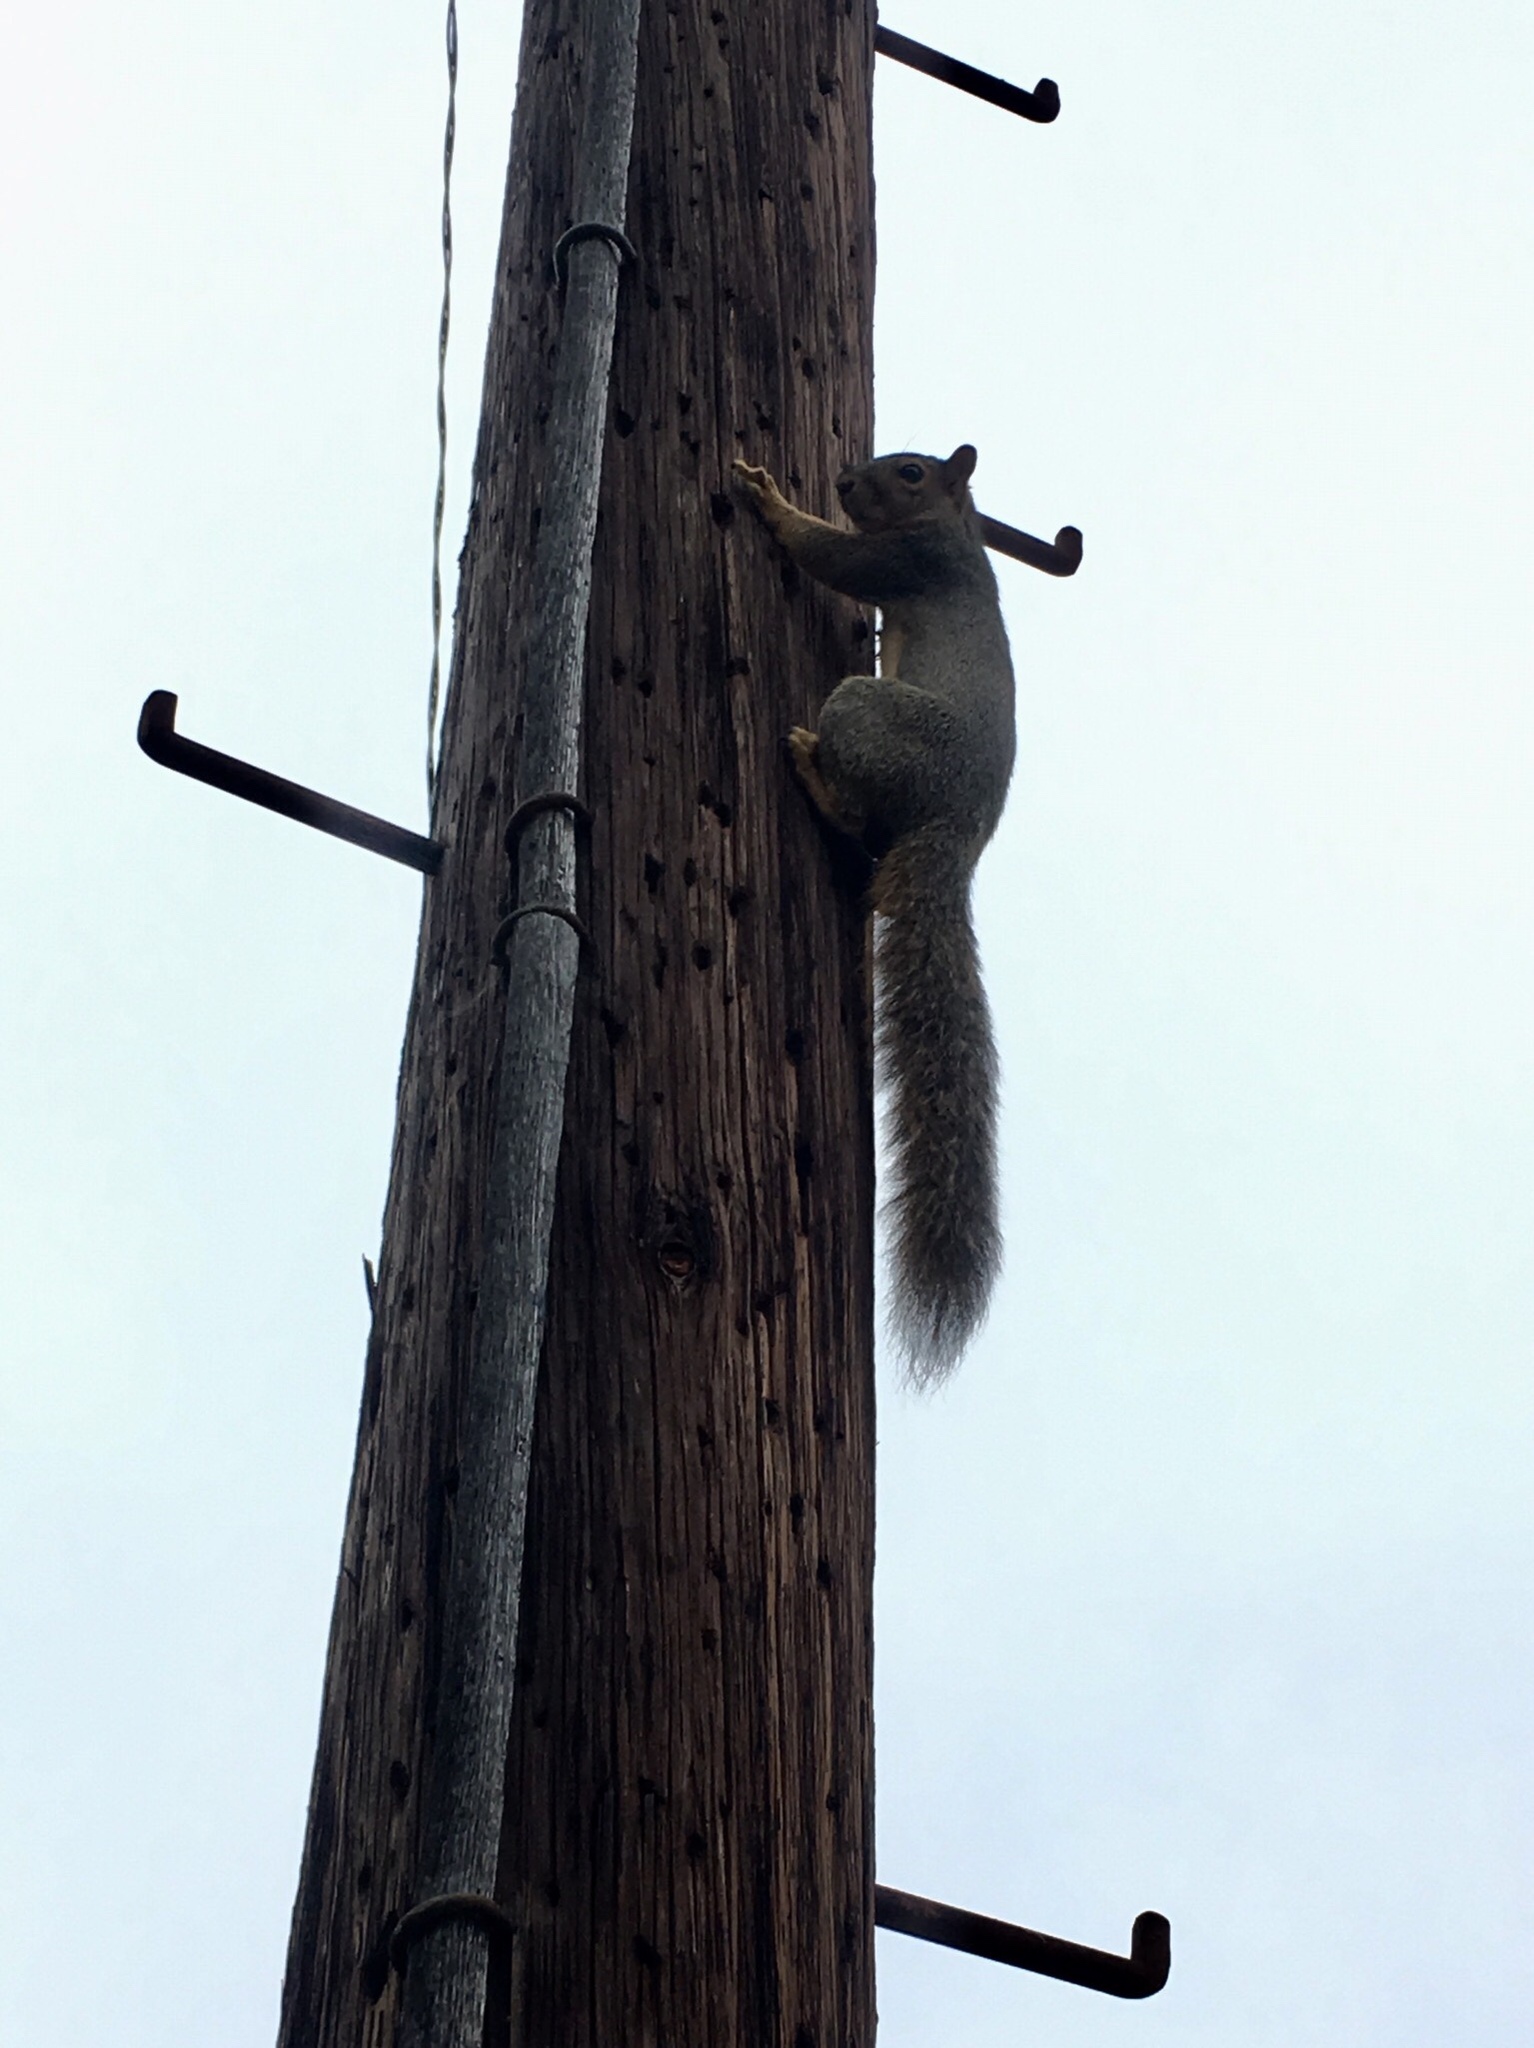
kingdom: Animalia
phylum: Chordata
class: Mammalia
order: Rodentia
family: Sciuridae
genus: Sciurus
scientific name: Sciurus niger
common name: Fox squirrel
